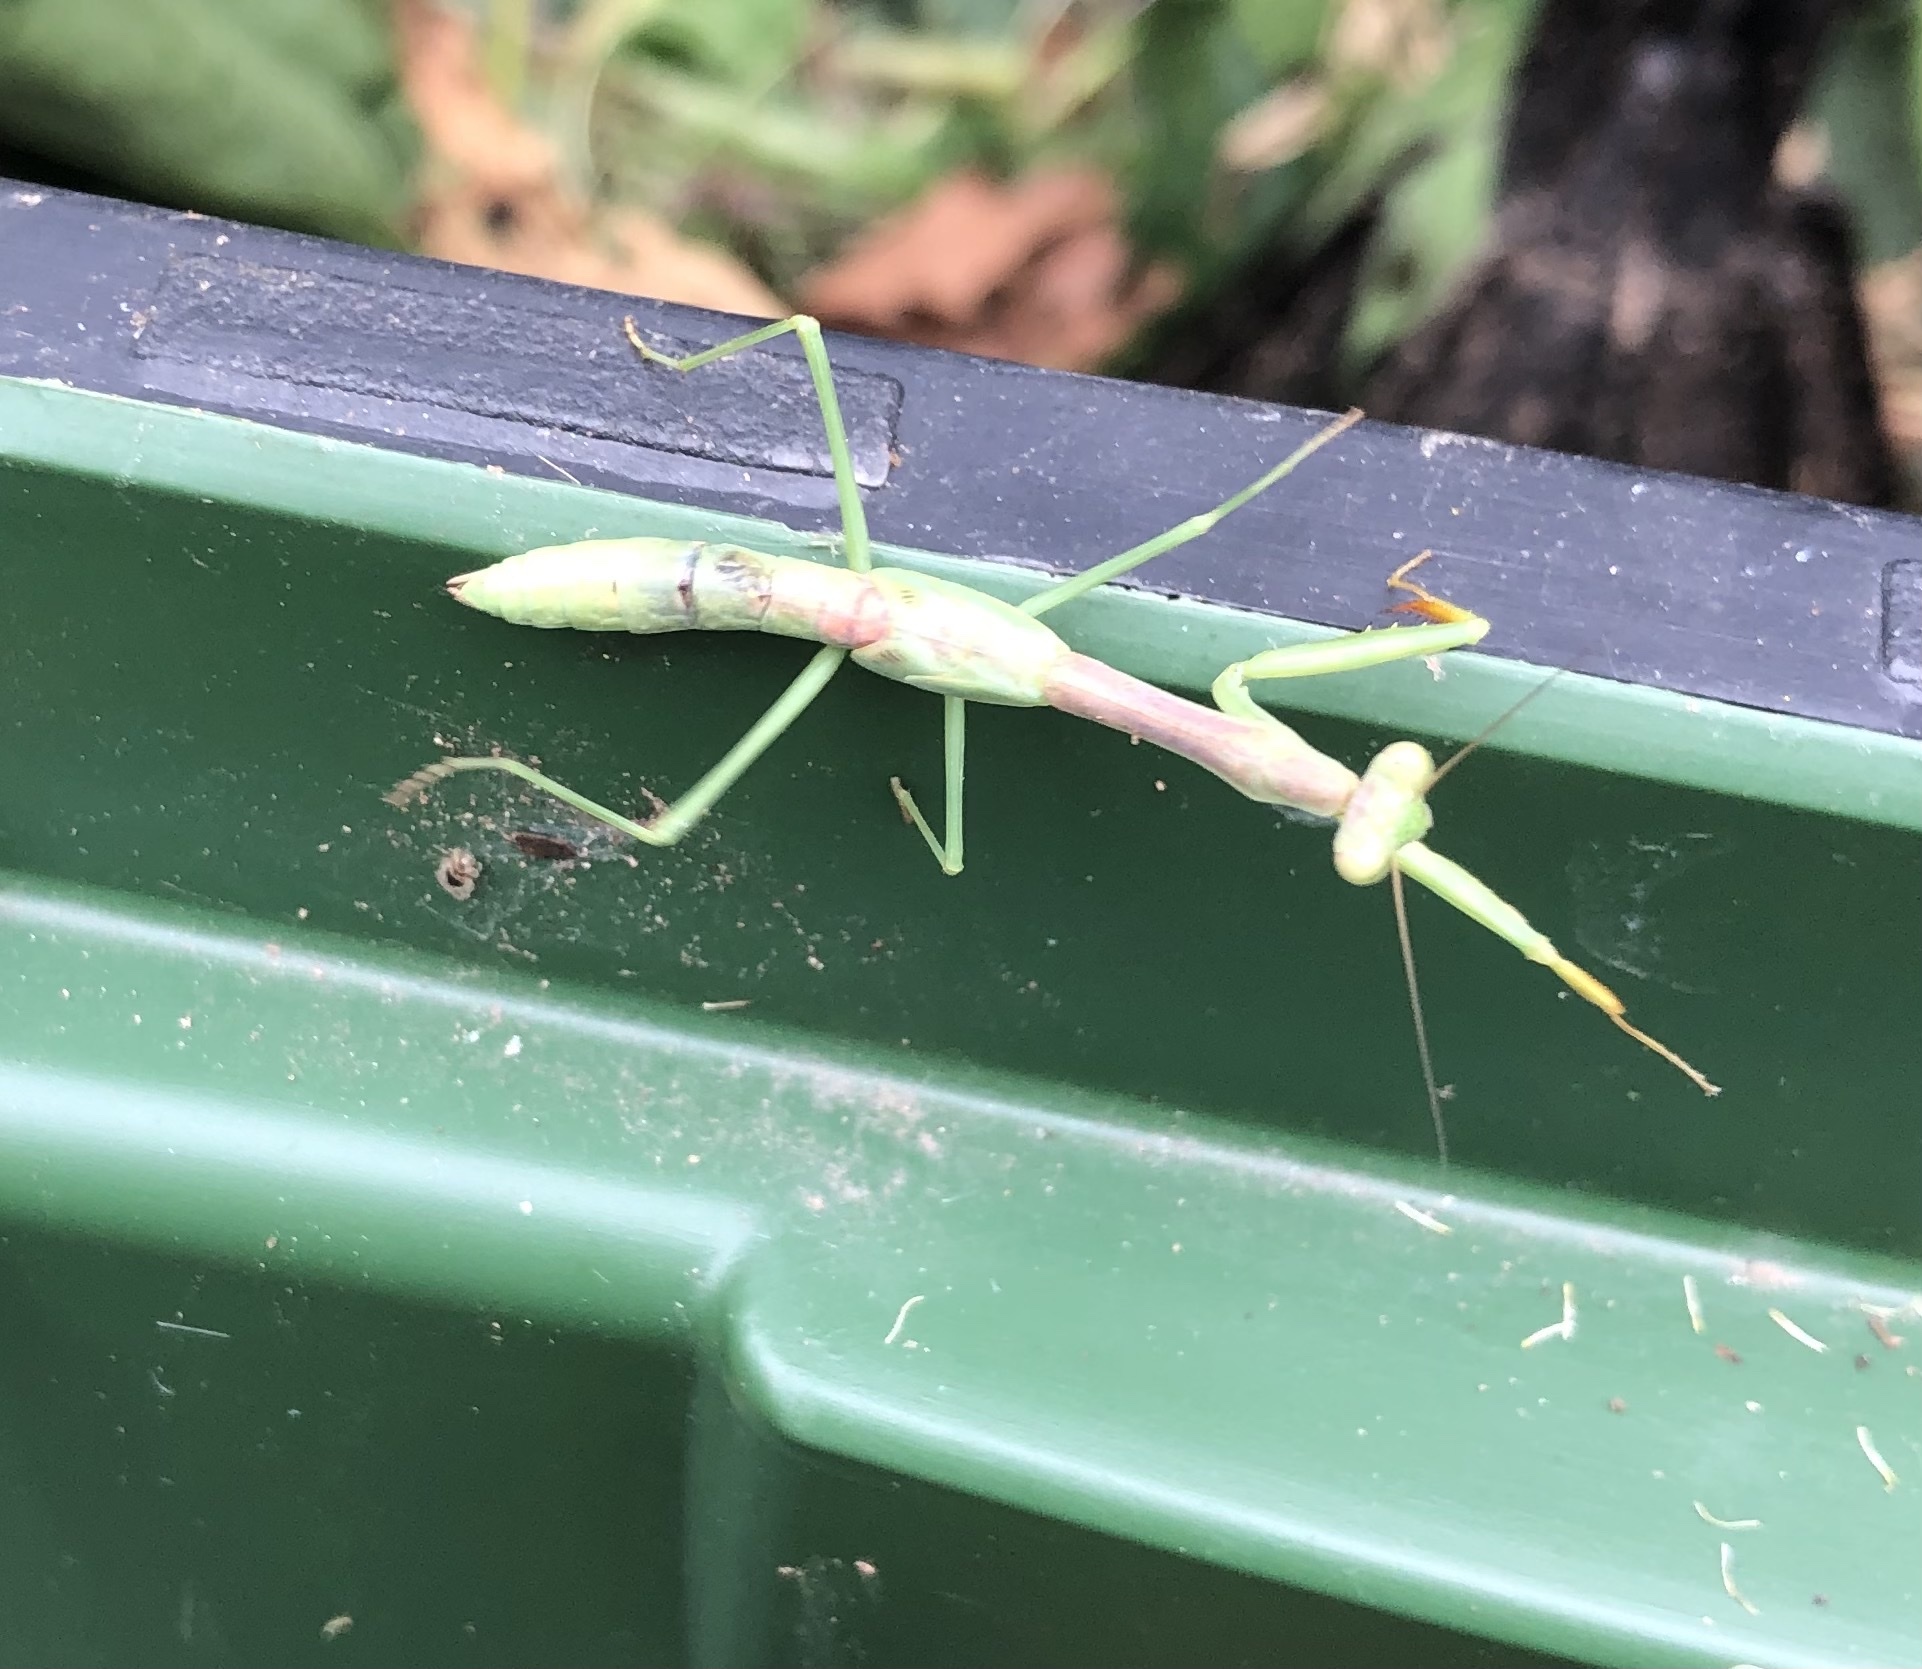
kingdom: Animalia
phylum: Arthropoda
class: Insecta
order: Mantodea
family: Mantidae
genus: Stagmomantis
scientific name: Stagmomantis carolina
